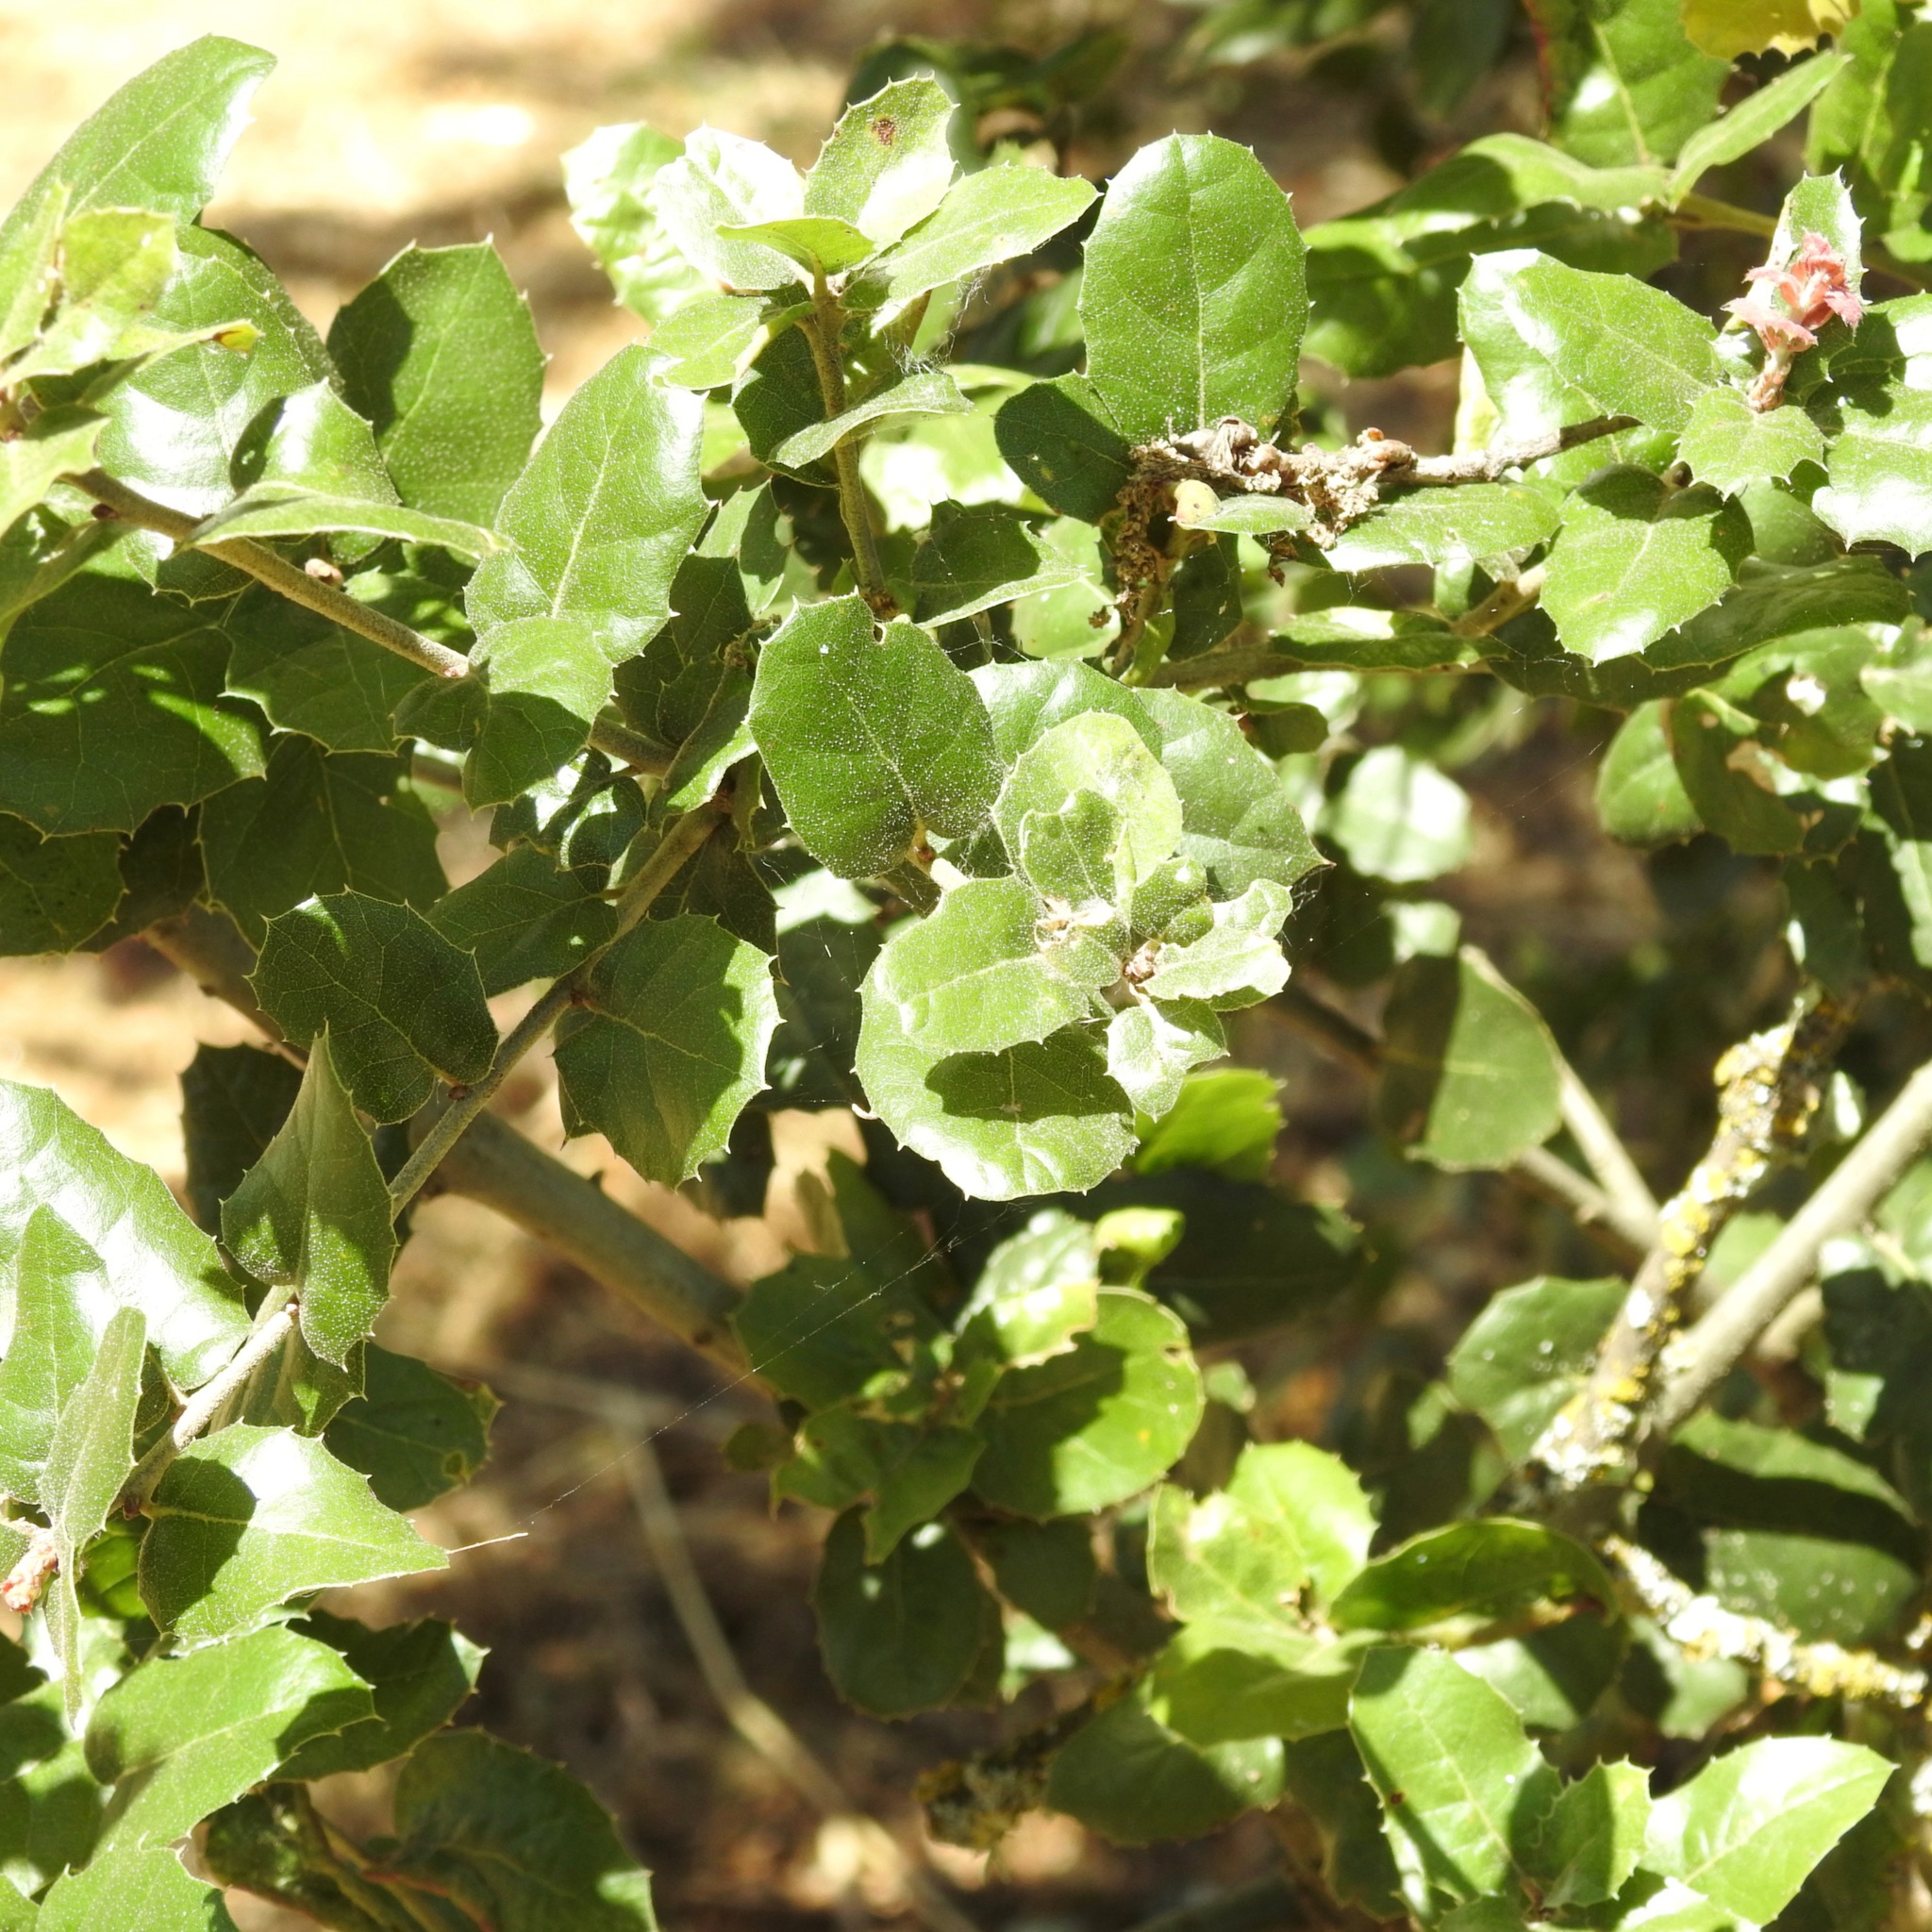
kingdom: Plantae
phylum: Tracheophyta
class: Magnoliopsida
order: Fagales
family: Fagaceae
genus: Quercus
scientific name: Quercus agrifolia
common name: California live oak
